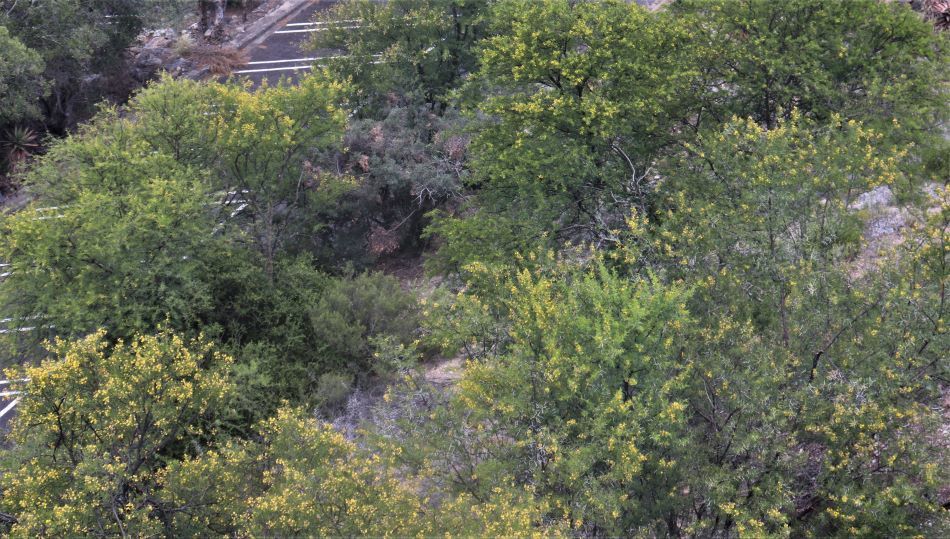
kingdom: Plantae
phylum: Tracheophyta
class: Magnoliopsida
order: Fabales
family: Fabaceae
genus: Vachellia
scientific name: Vachellia karroo
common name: Sweet thorn
